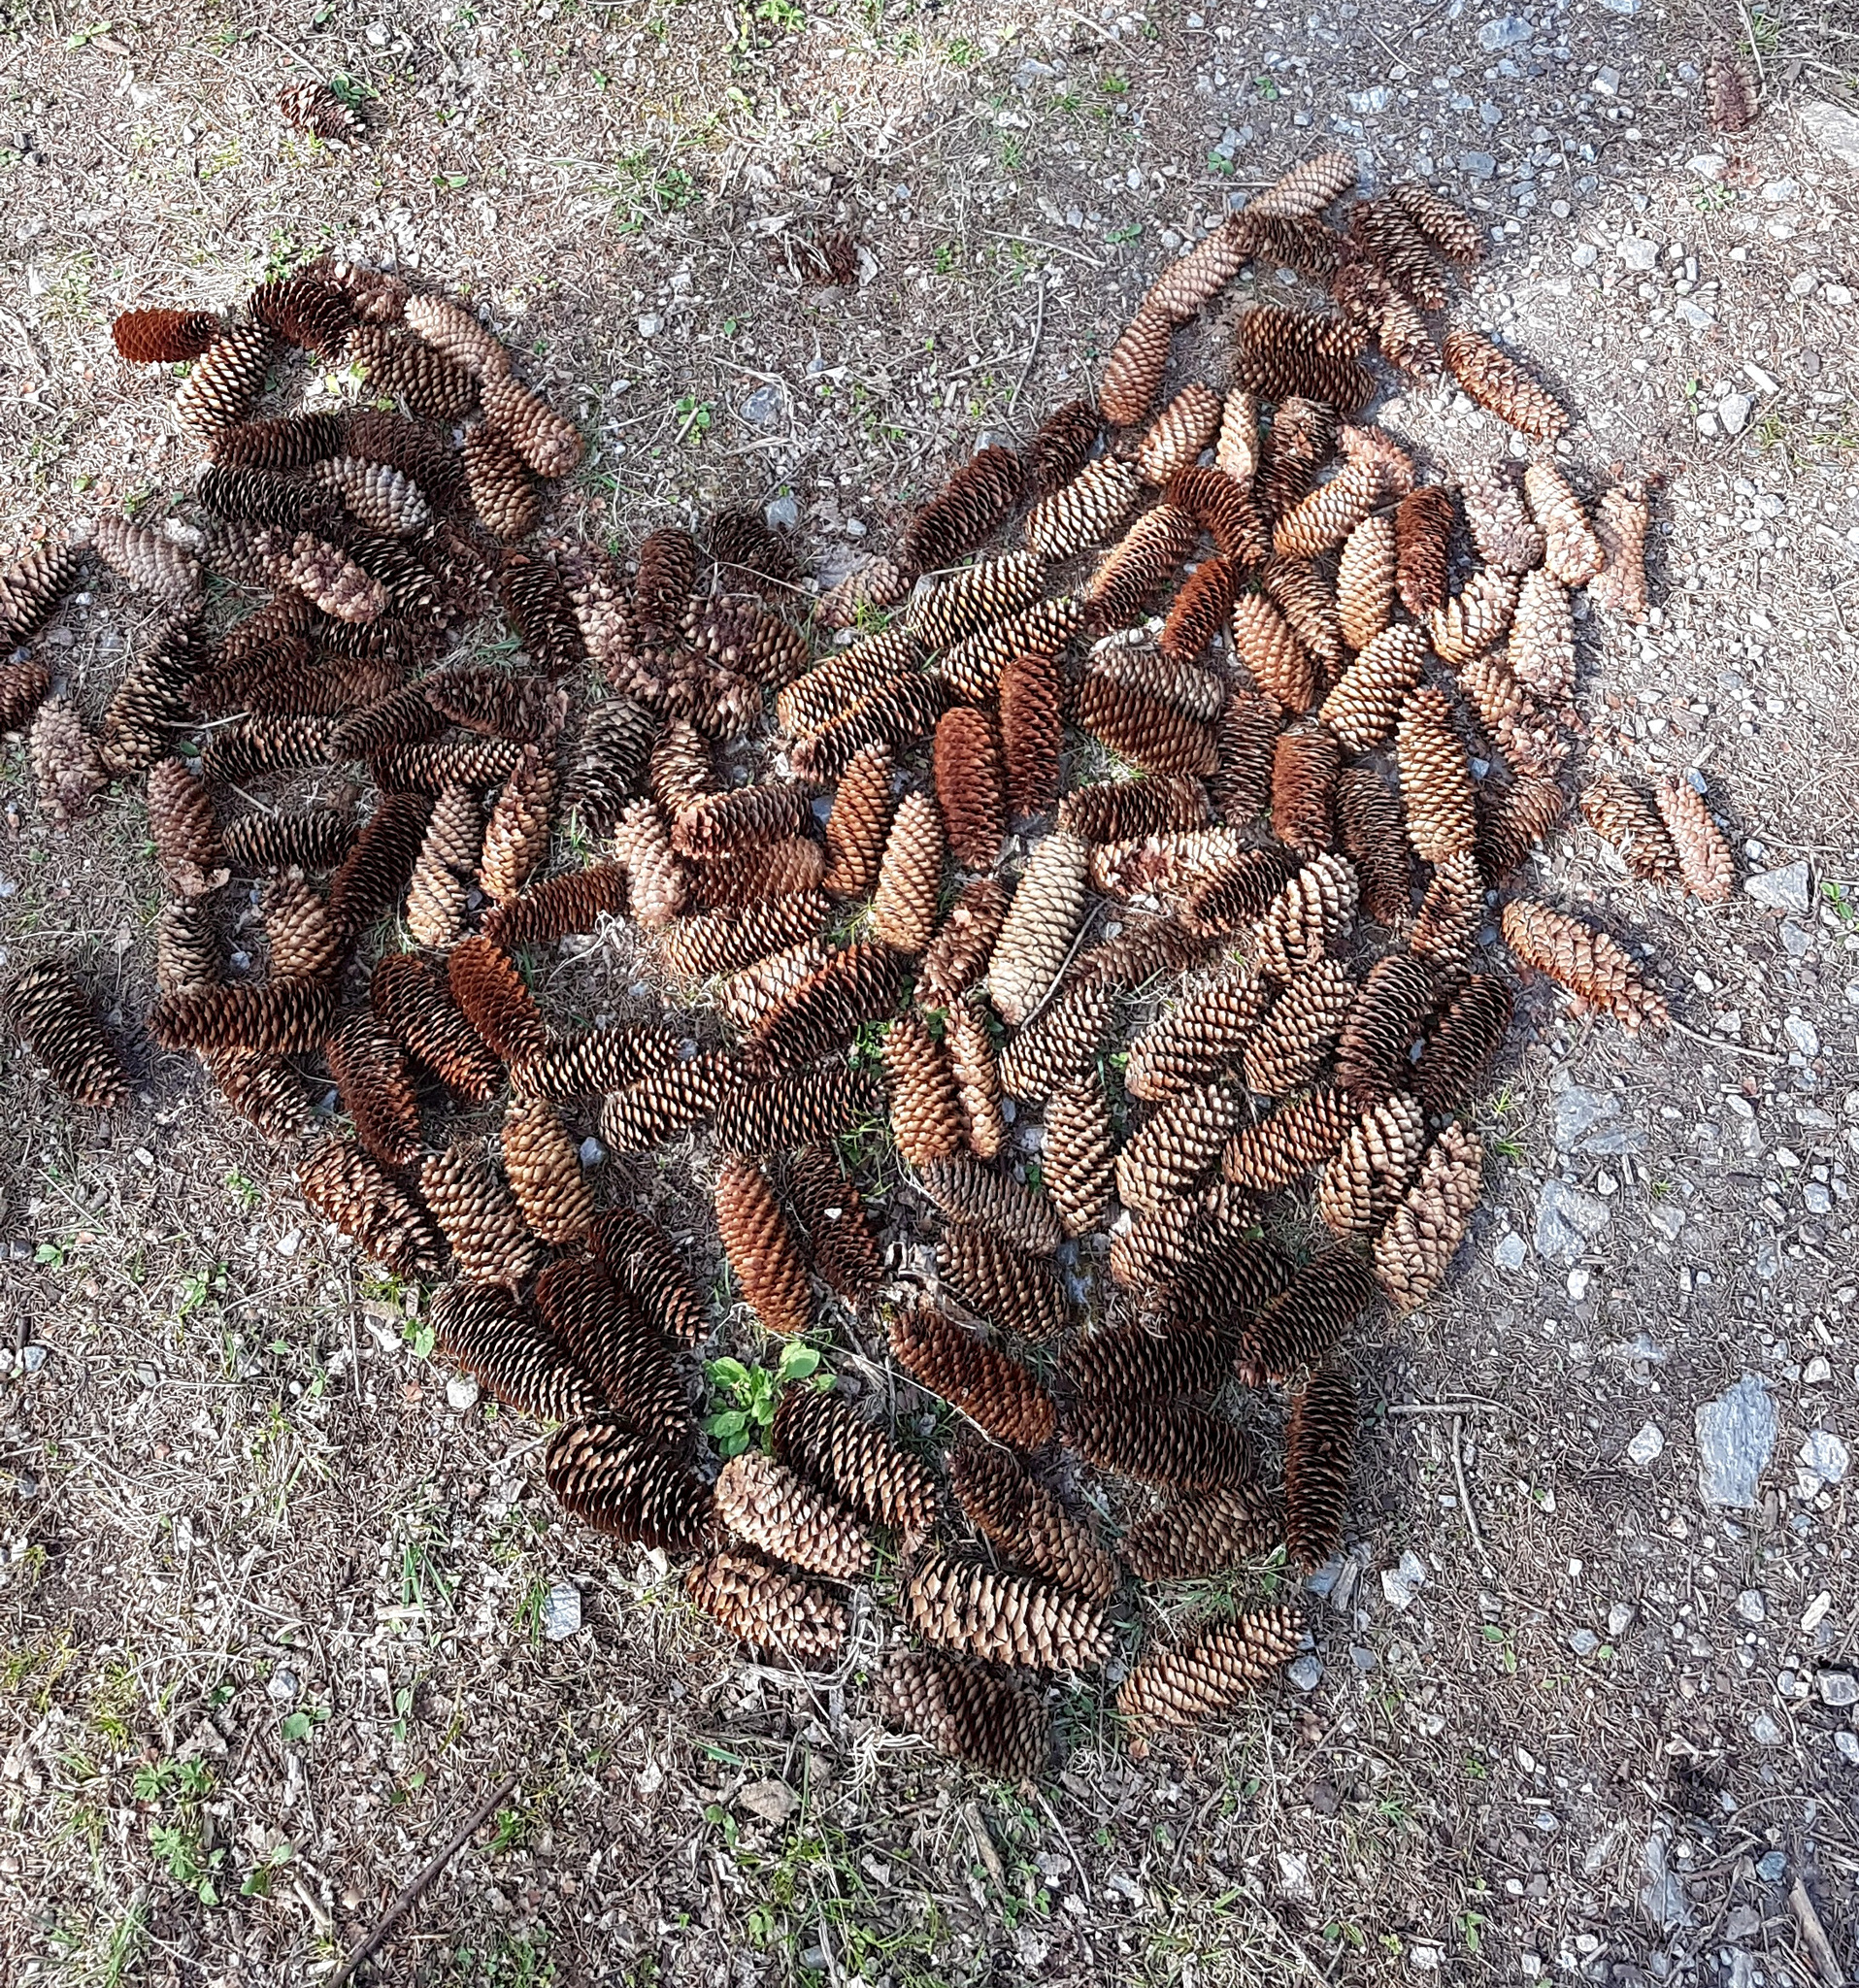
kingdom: Plantae
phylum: Tracheophyta
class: Pinopsida
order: Pinales
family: Pinaceae
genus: Picea
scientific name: Picea abies
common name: Norway spruce
